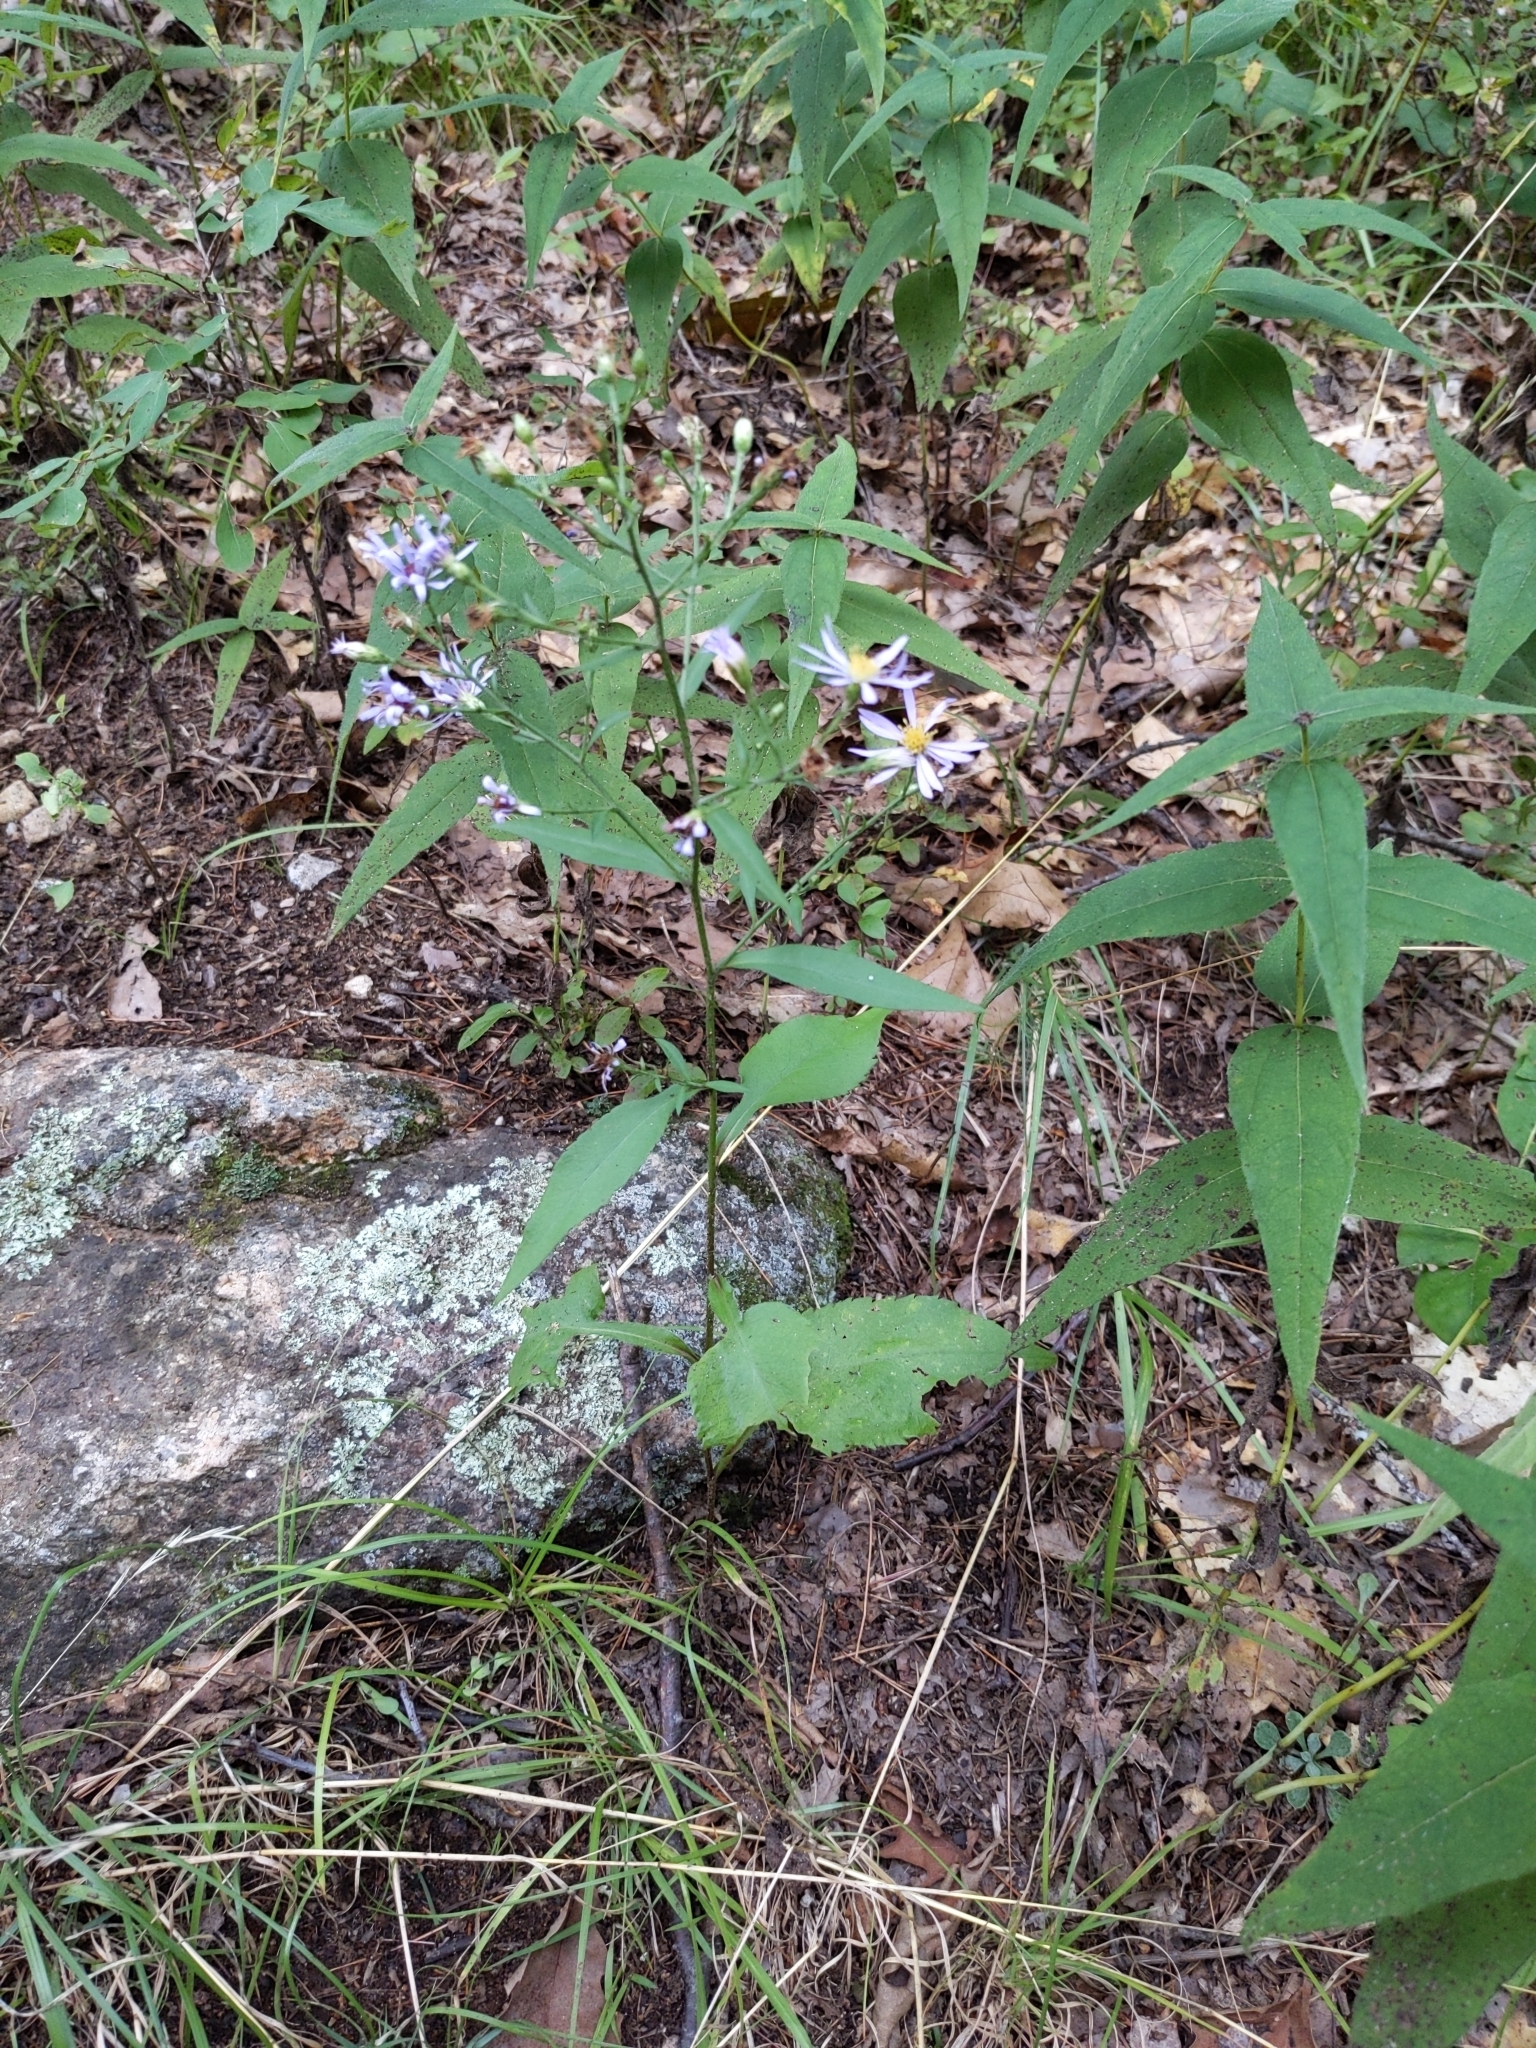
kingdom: Plantae
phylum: Tracheophyta
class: Magnoliopsida
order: Asterales
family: Asteraceae
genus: Symphyotrichum
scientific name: Symphyotrichum ciliolatum
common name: Fringed blue aster
